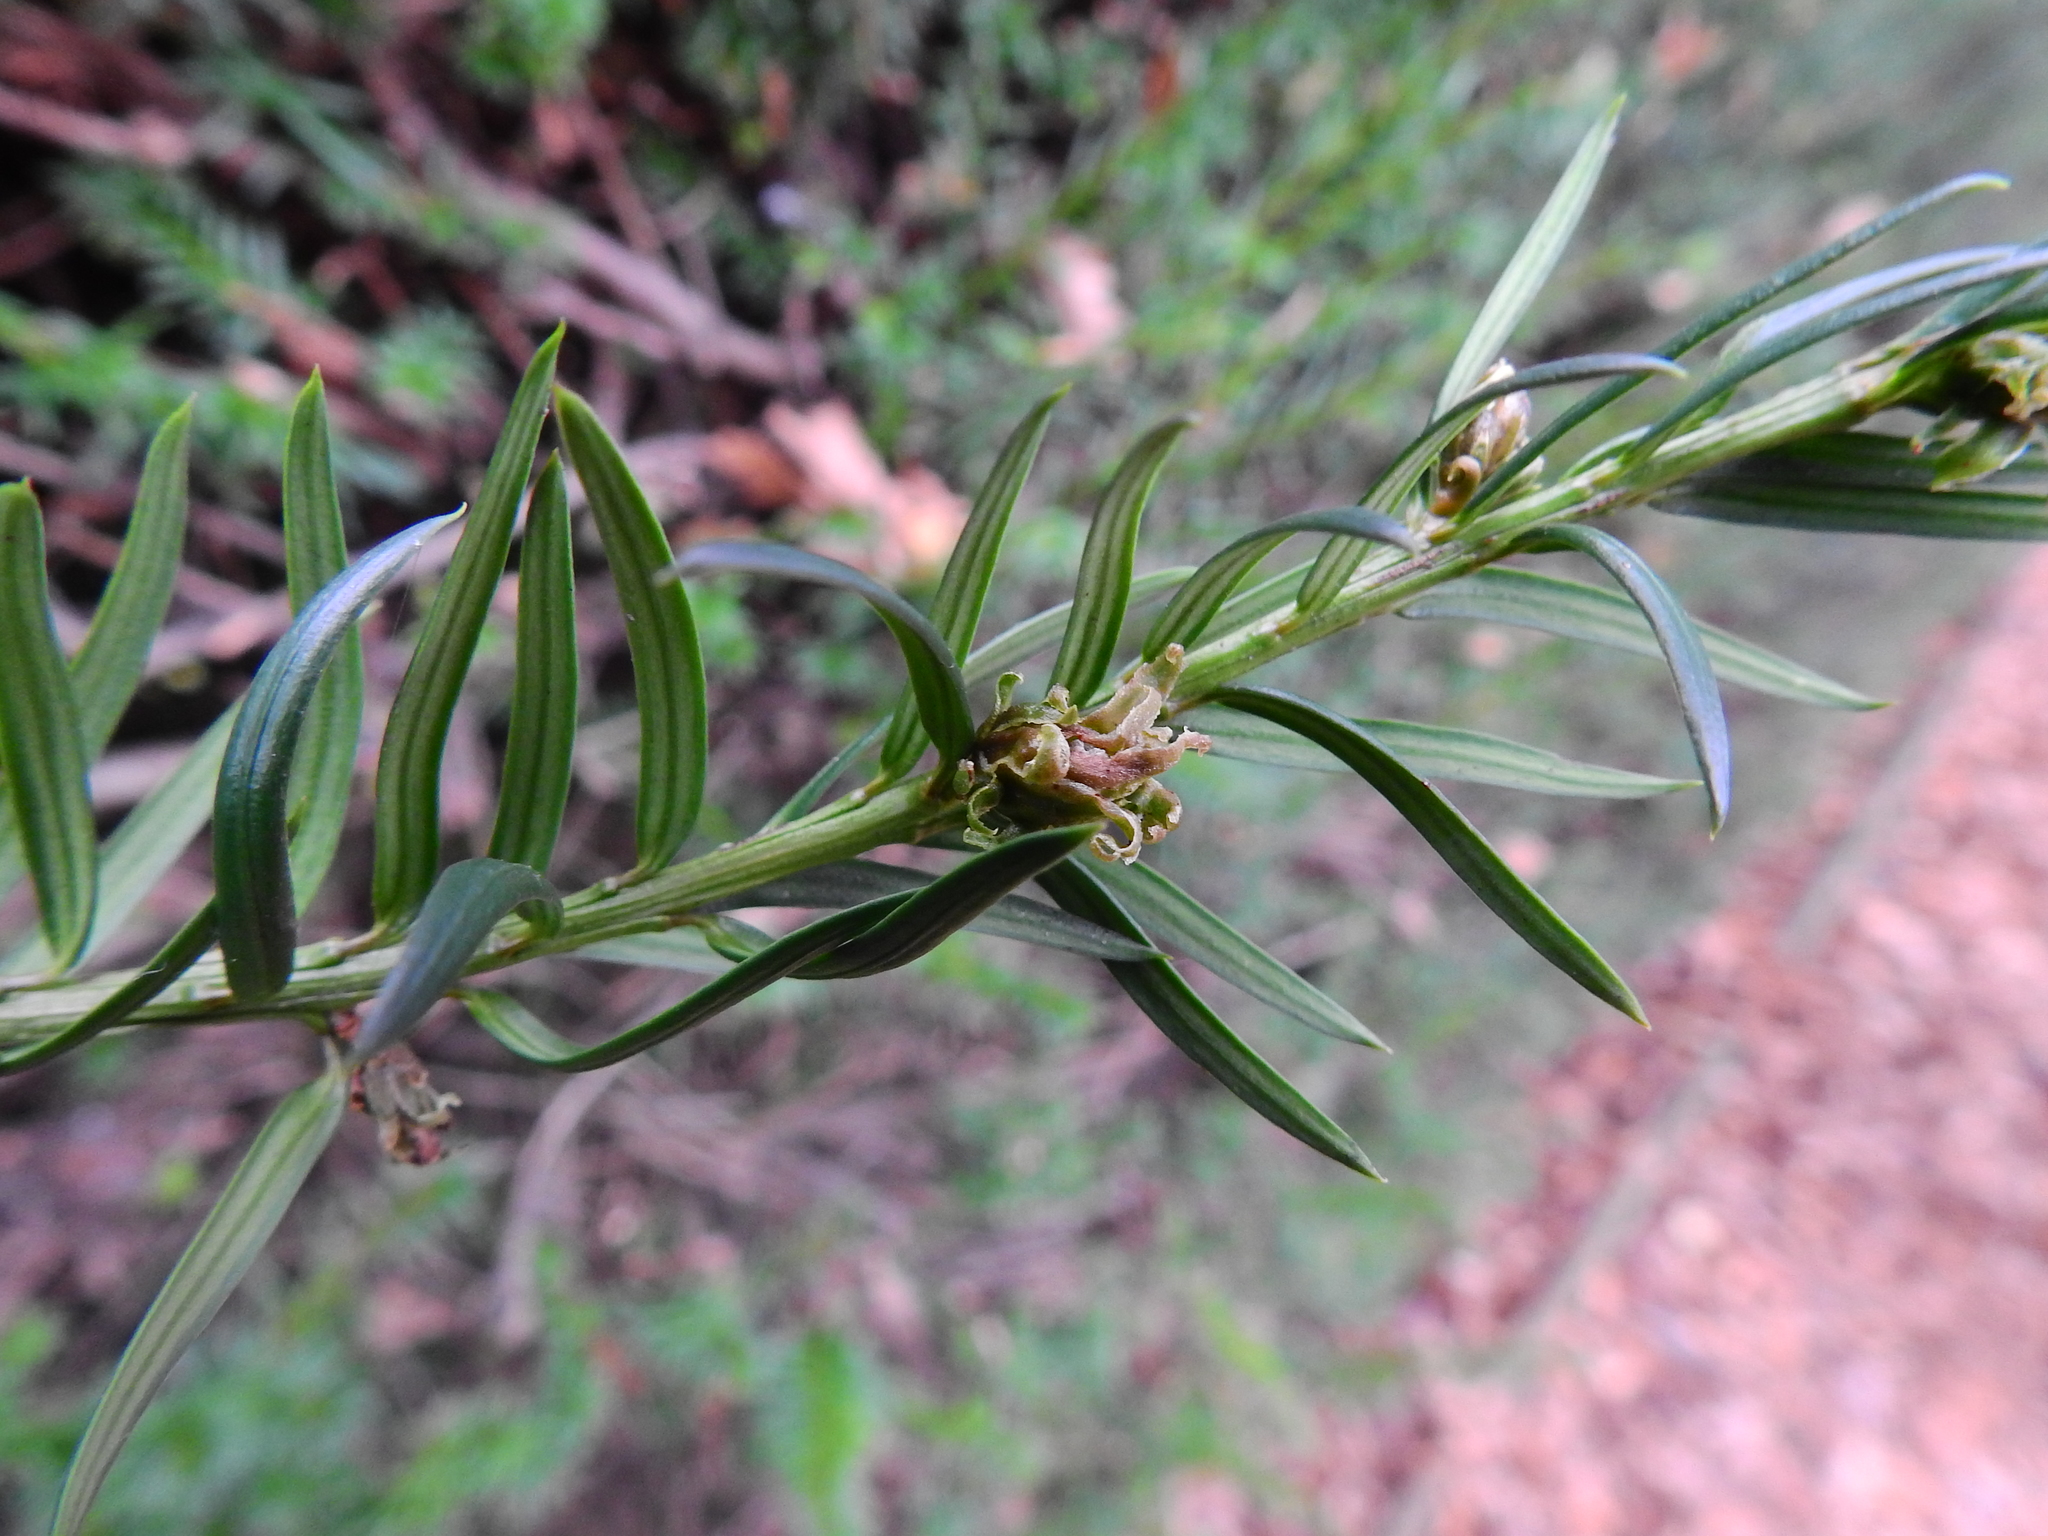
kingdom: Animalia
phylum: Arthropoda
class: Arachnida
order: Trombidiformes
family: Eriophyidae
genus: Cecidophyopsis
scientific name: Cecidophyopsis psilaspis
